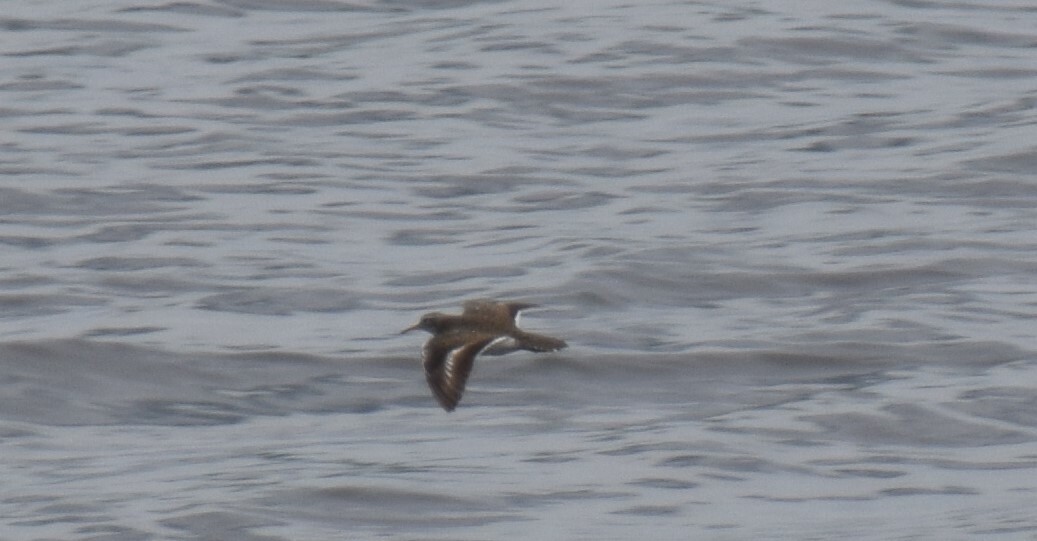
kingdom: Animalia
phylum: Chordata
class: Aves
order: Charadriiformes
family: Scolopacidae
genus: Actitis
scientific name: Actitis macularius
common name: Spotted sandpiper
